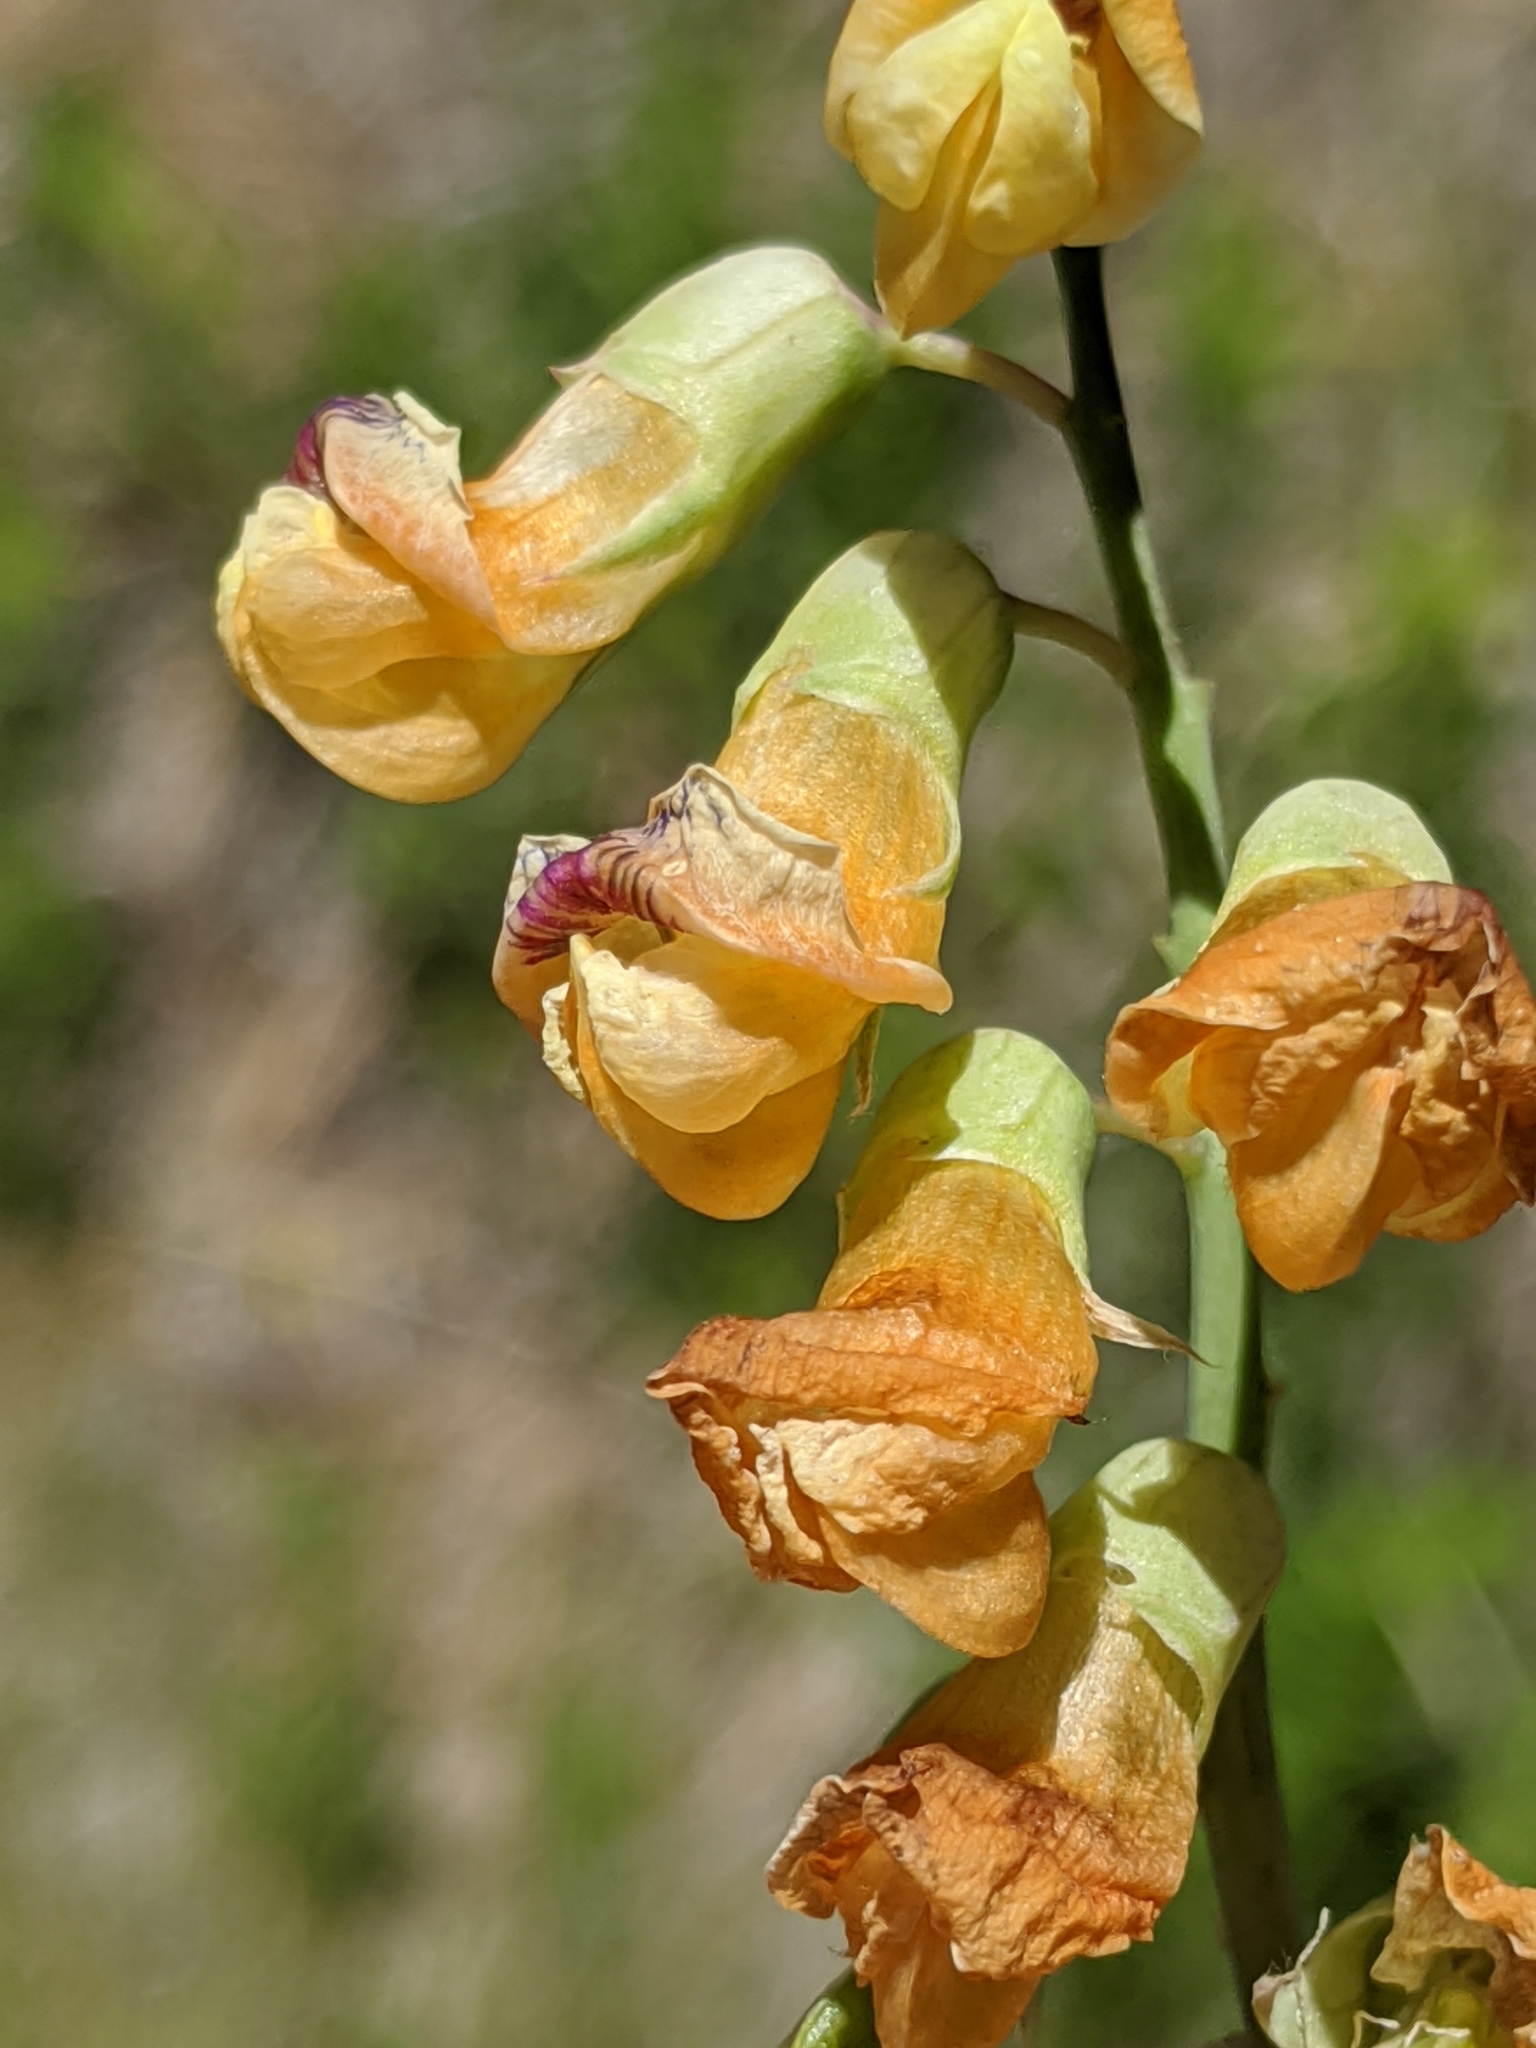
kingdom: Plantae
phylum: Tracheophyta
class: Magnoliopsida
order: Fabales
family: Fabaceae
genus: Lathyrus
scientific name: Lathyrus sulphureus
